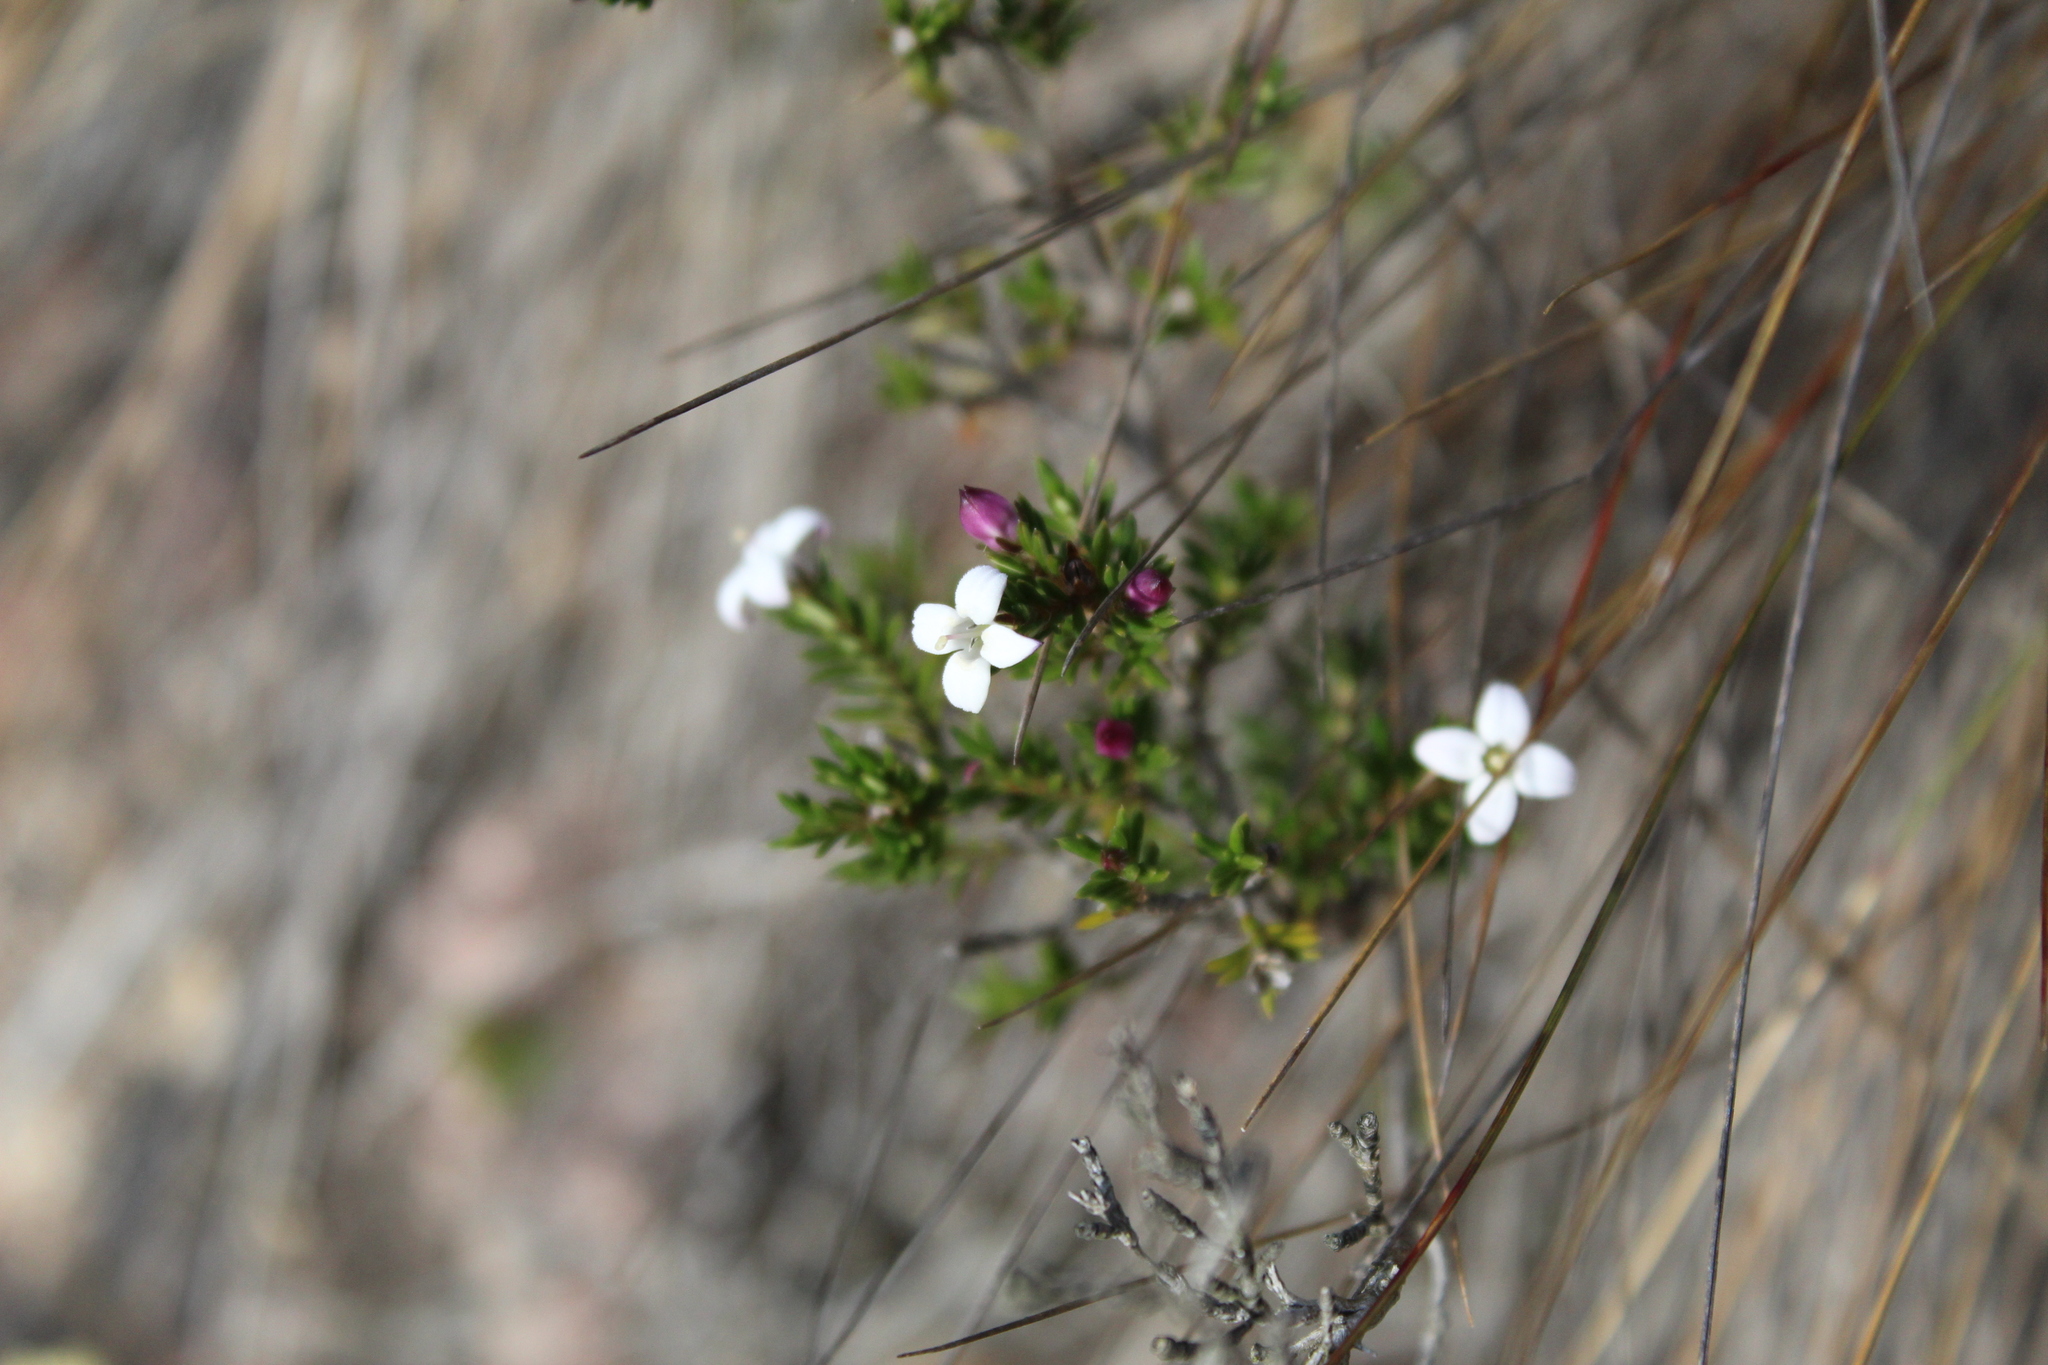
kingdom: Plantae
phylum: Tracheophyta
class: Magnoliopsida
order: Gentianales
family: Rubiaceae
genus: Arcytophyllum
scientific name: Arcytophyllum nitidum
